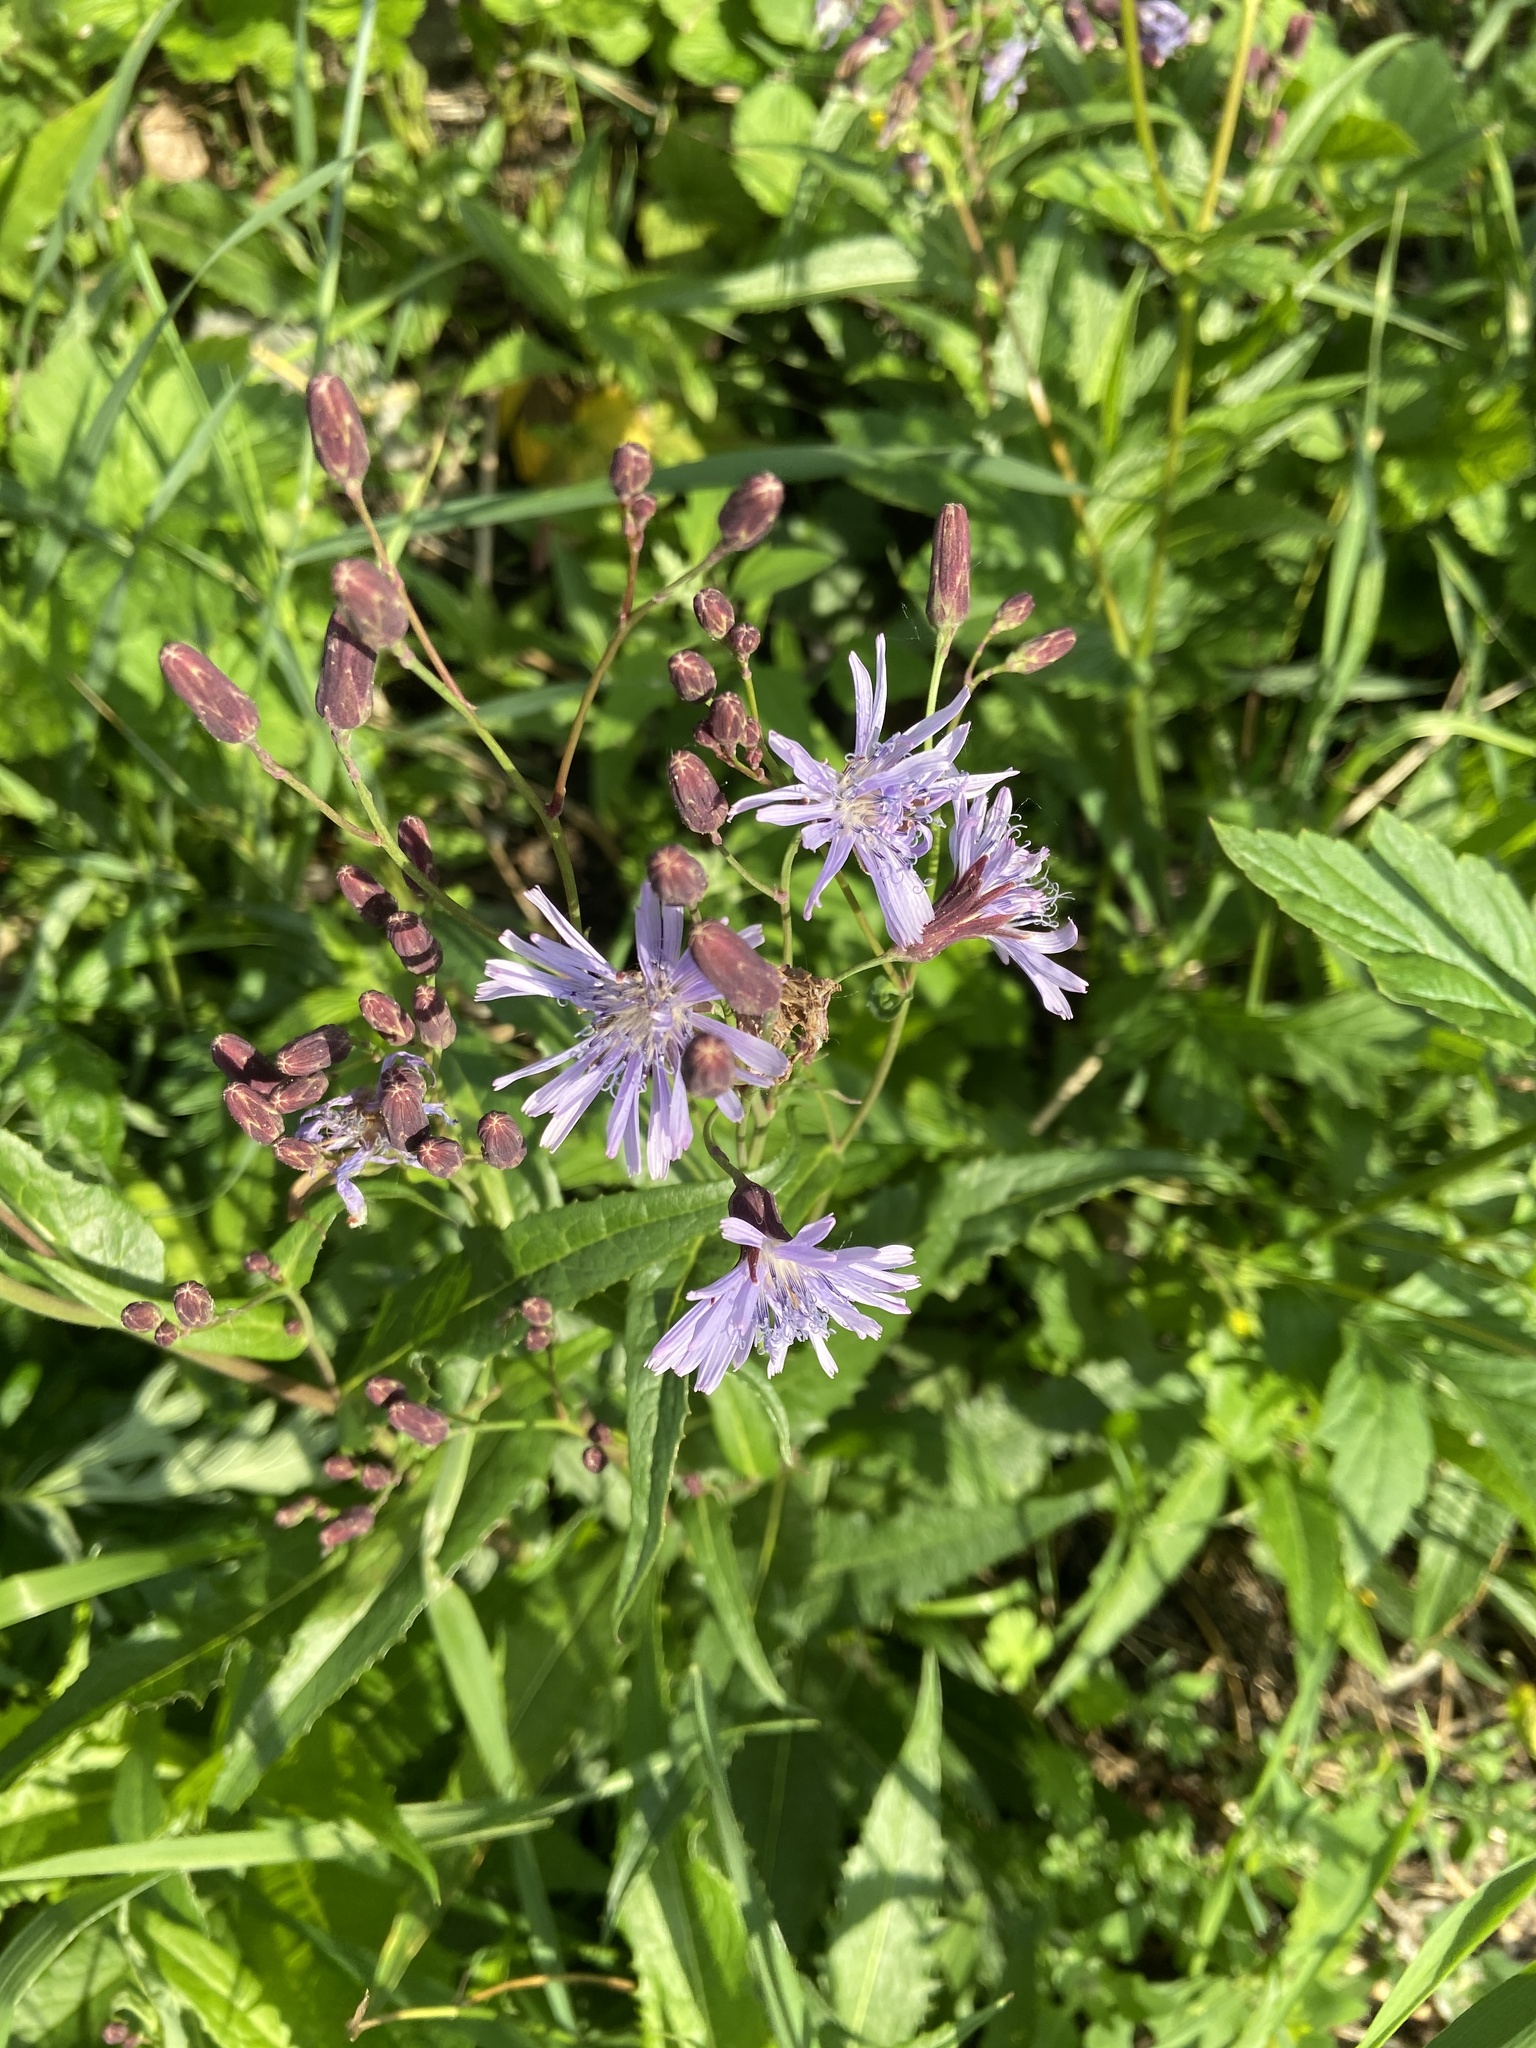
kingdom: Plantae
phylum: Tracheophyta
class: Magnoliopsida
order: Asterales
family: Asteraceae
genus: Lactuca
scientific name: Lactuca sibirica
